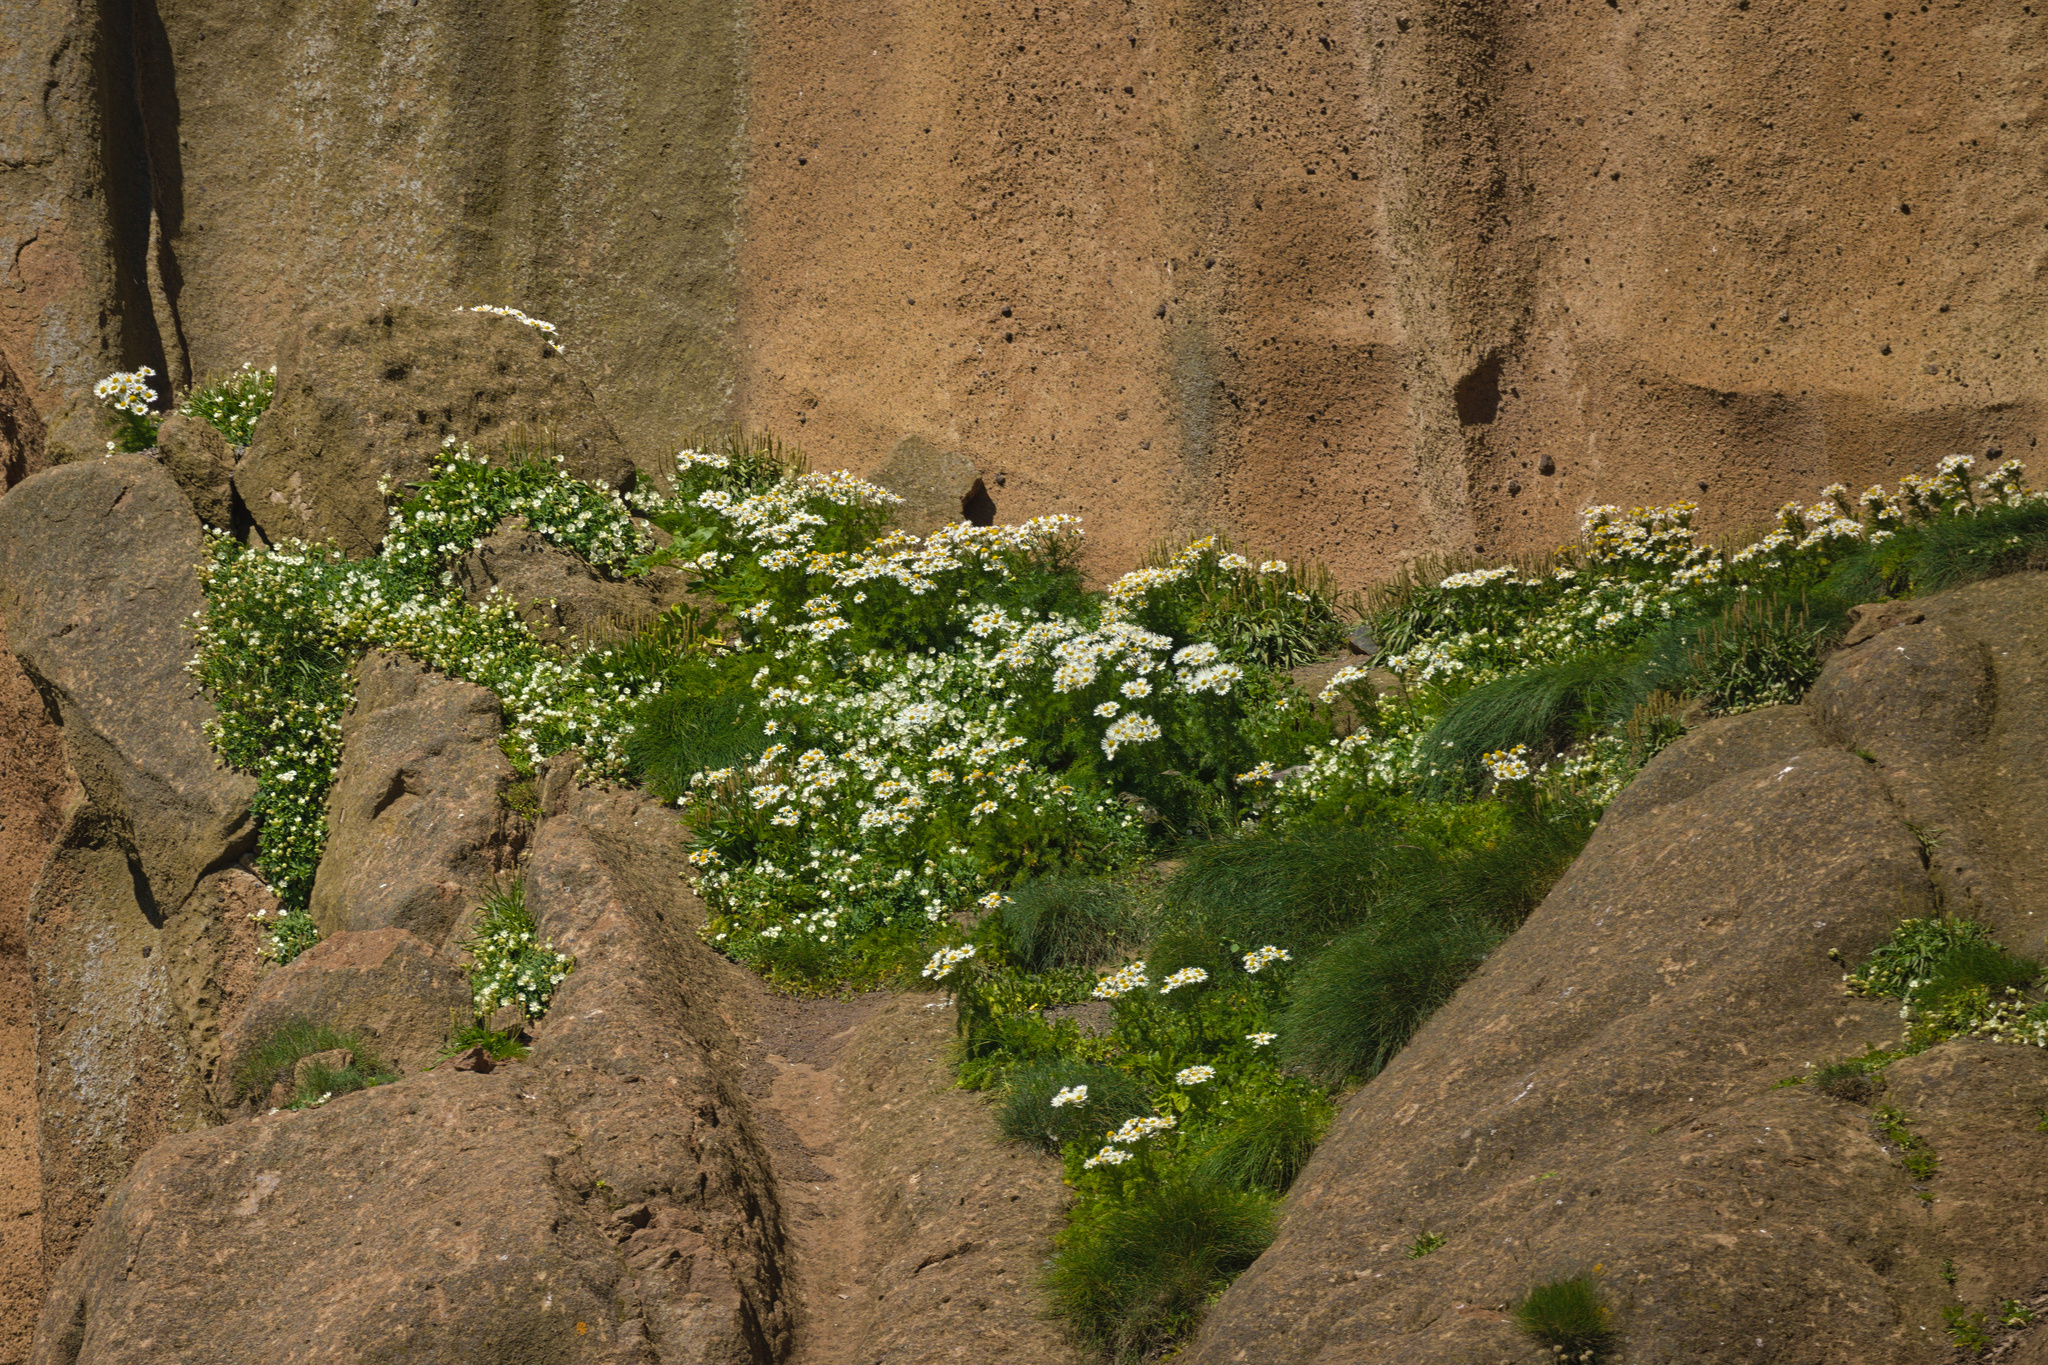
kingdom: Plantae
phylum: Tracheophyta
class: Magnoliopsida
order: Asterales
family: Asteraceae
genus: Tripleurospermum
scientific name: Tripleurospermum maritimum
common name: Sea mayweed
